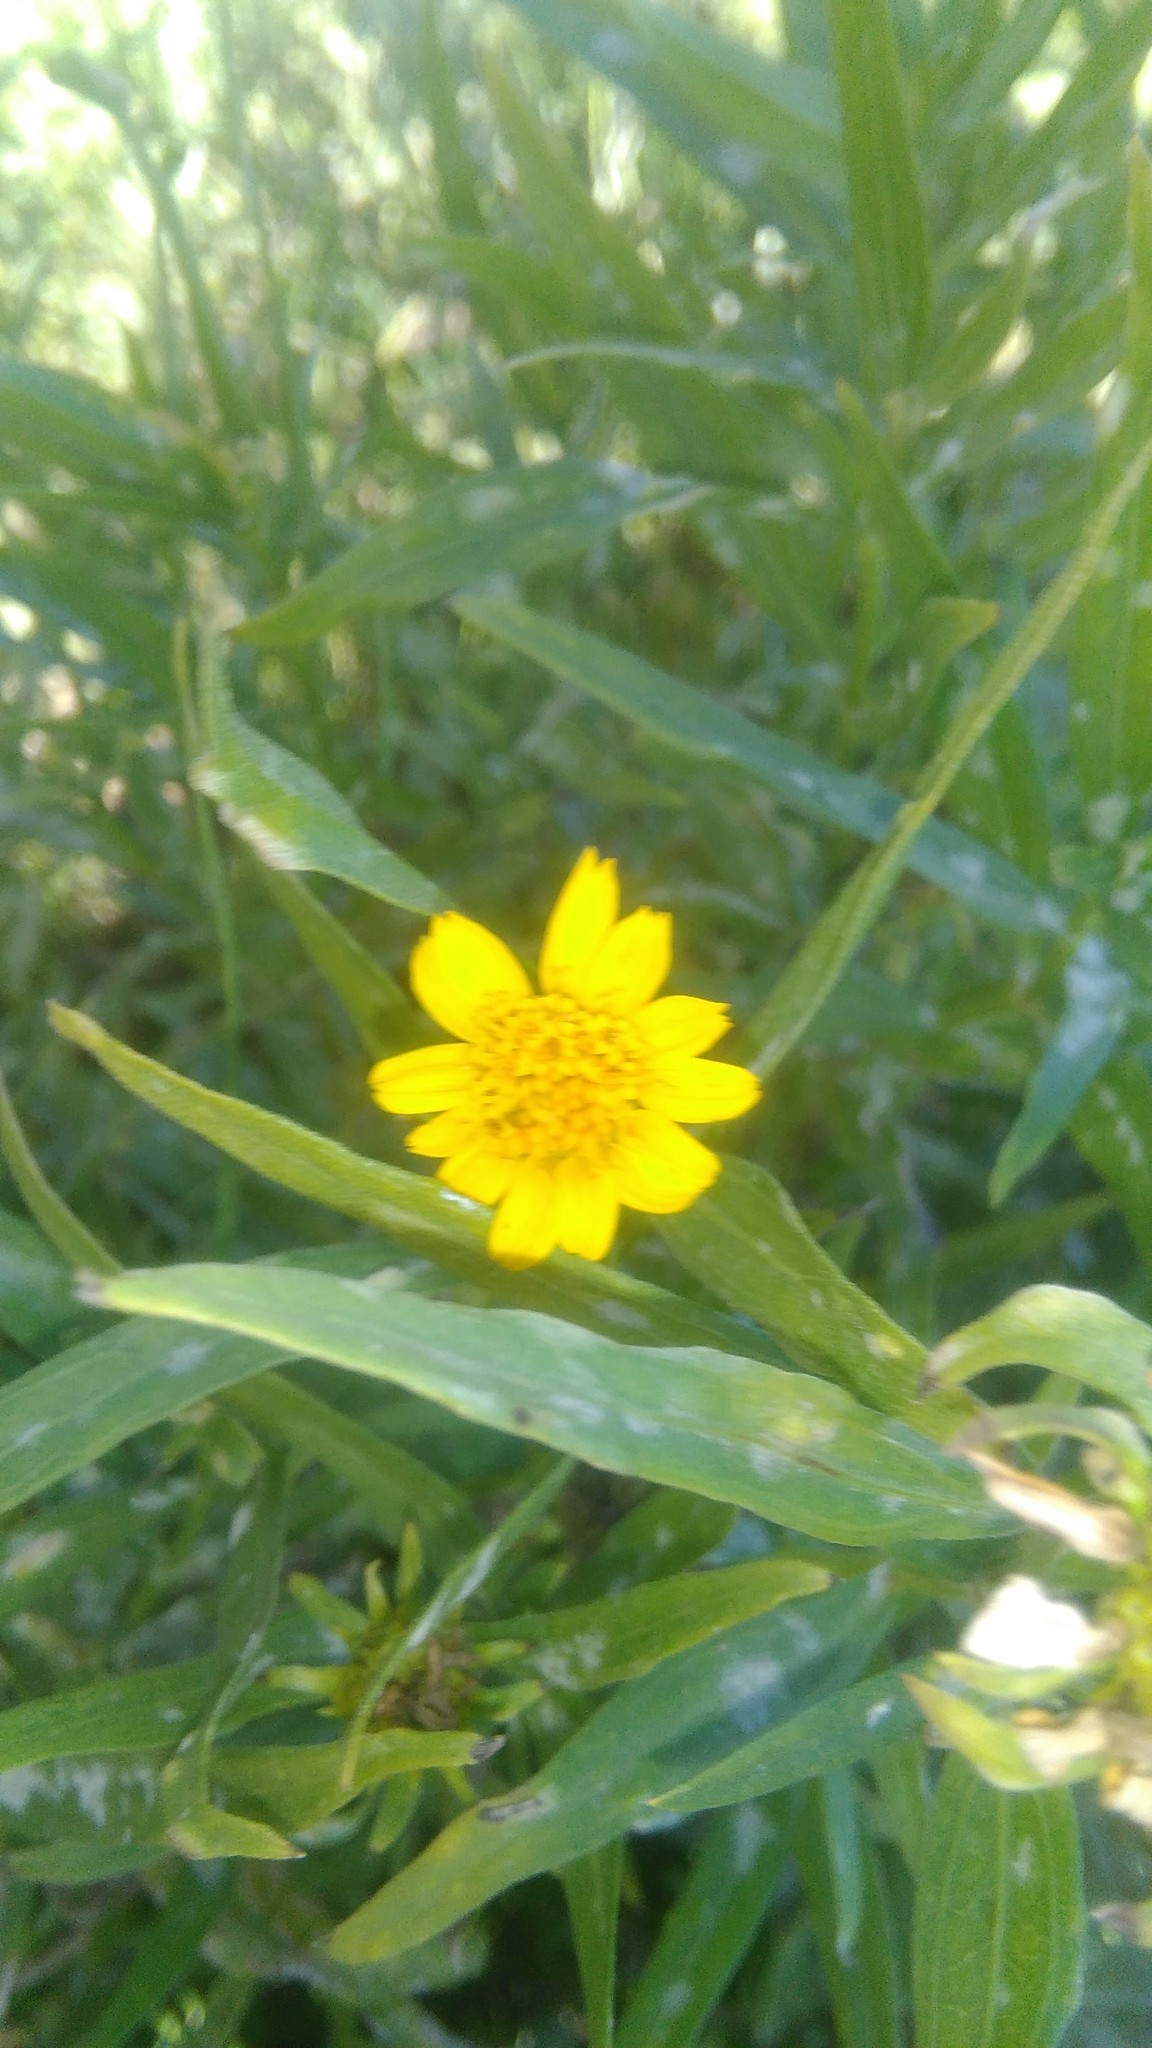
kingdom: Plantae
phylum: Tracheophyta
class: Magnoliopsida
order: Asterales
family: Asteraceae
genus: Pascalia
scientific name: Pascalia glauca
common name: Beach creeping oxeye
